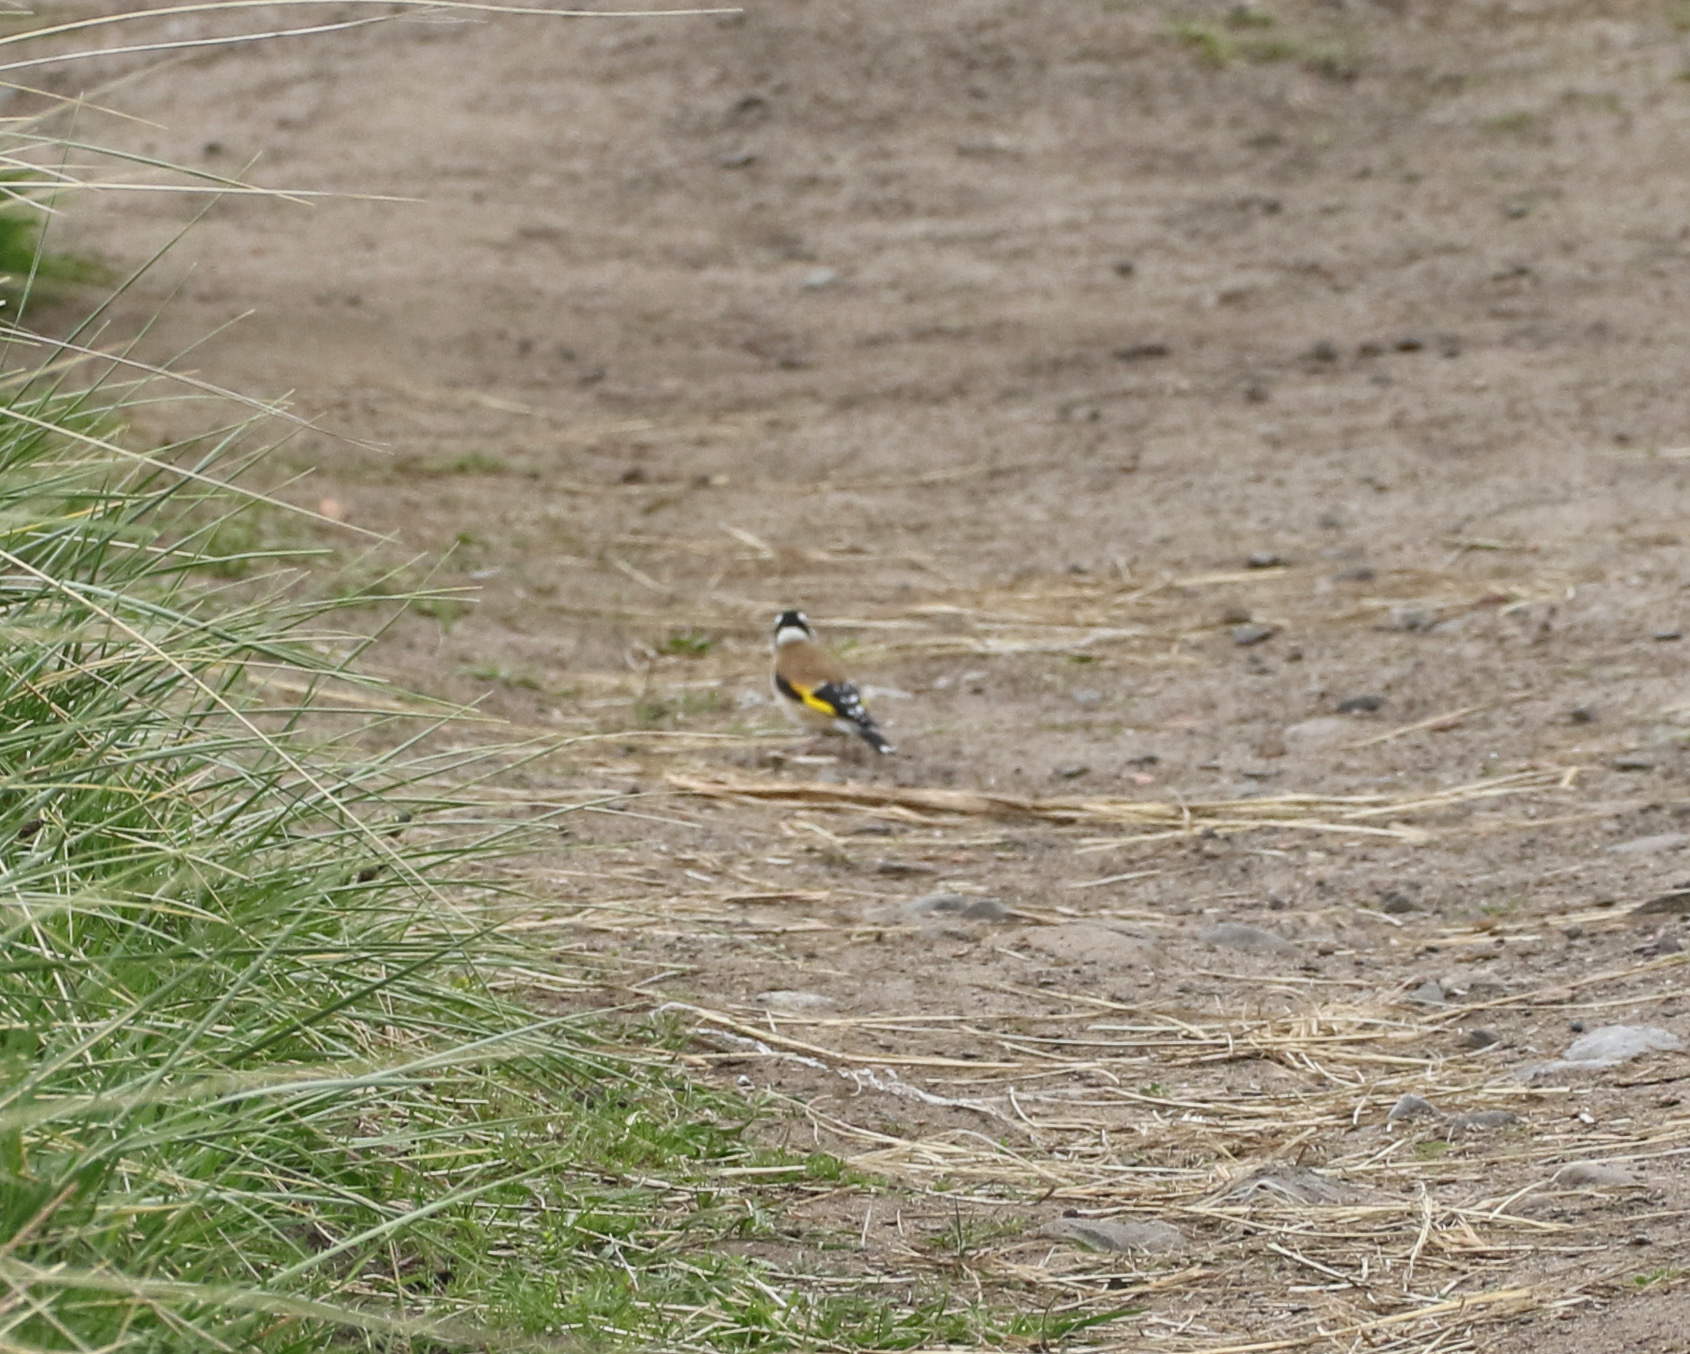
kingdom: Animalia
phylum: Chordata
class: Aves
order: Passeriformes
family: Fringillidae
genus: Carduelis
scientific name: Carduelis carduelis
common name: European goldfinch
